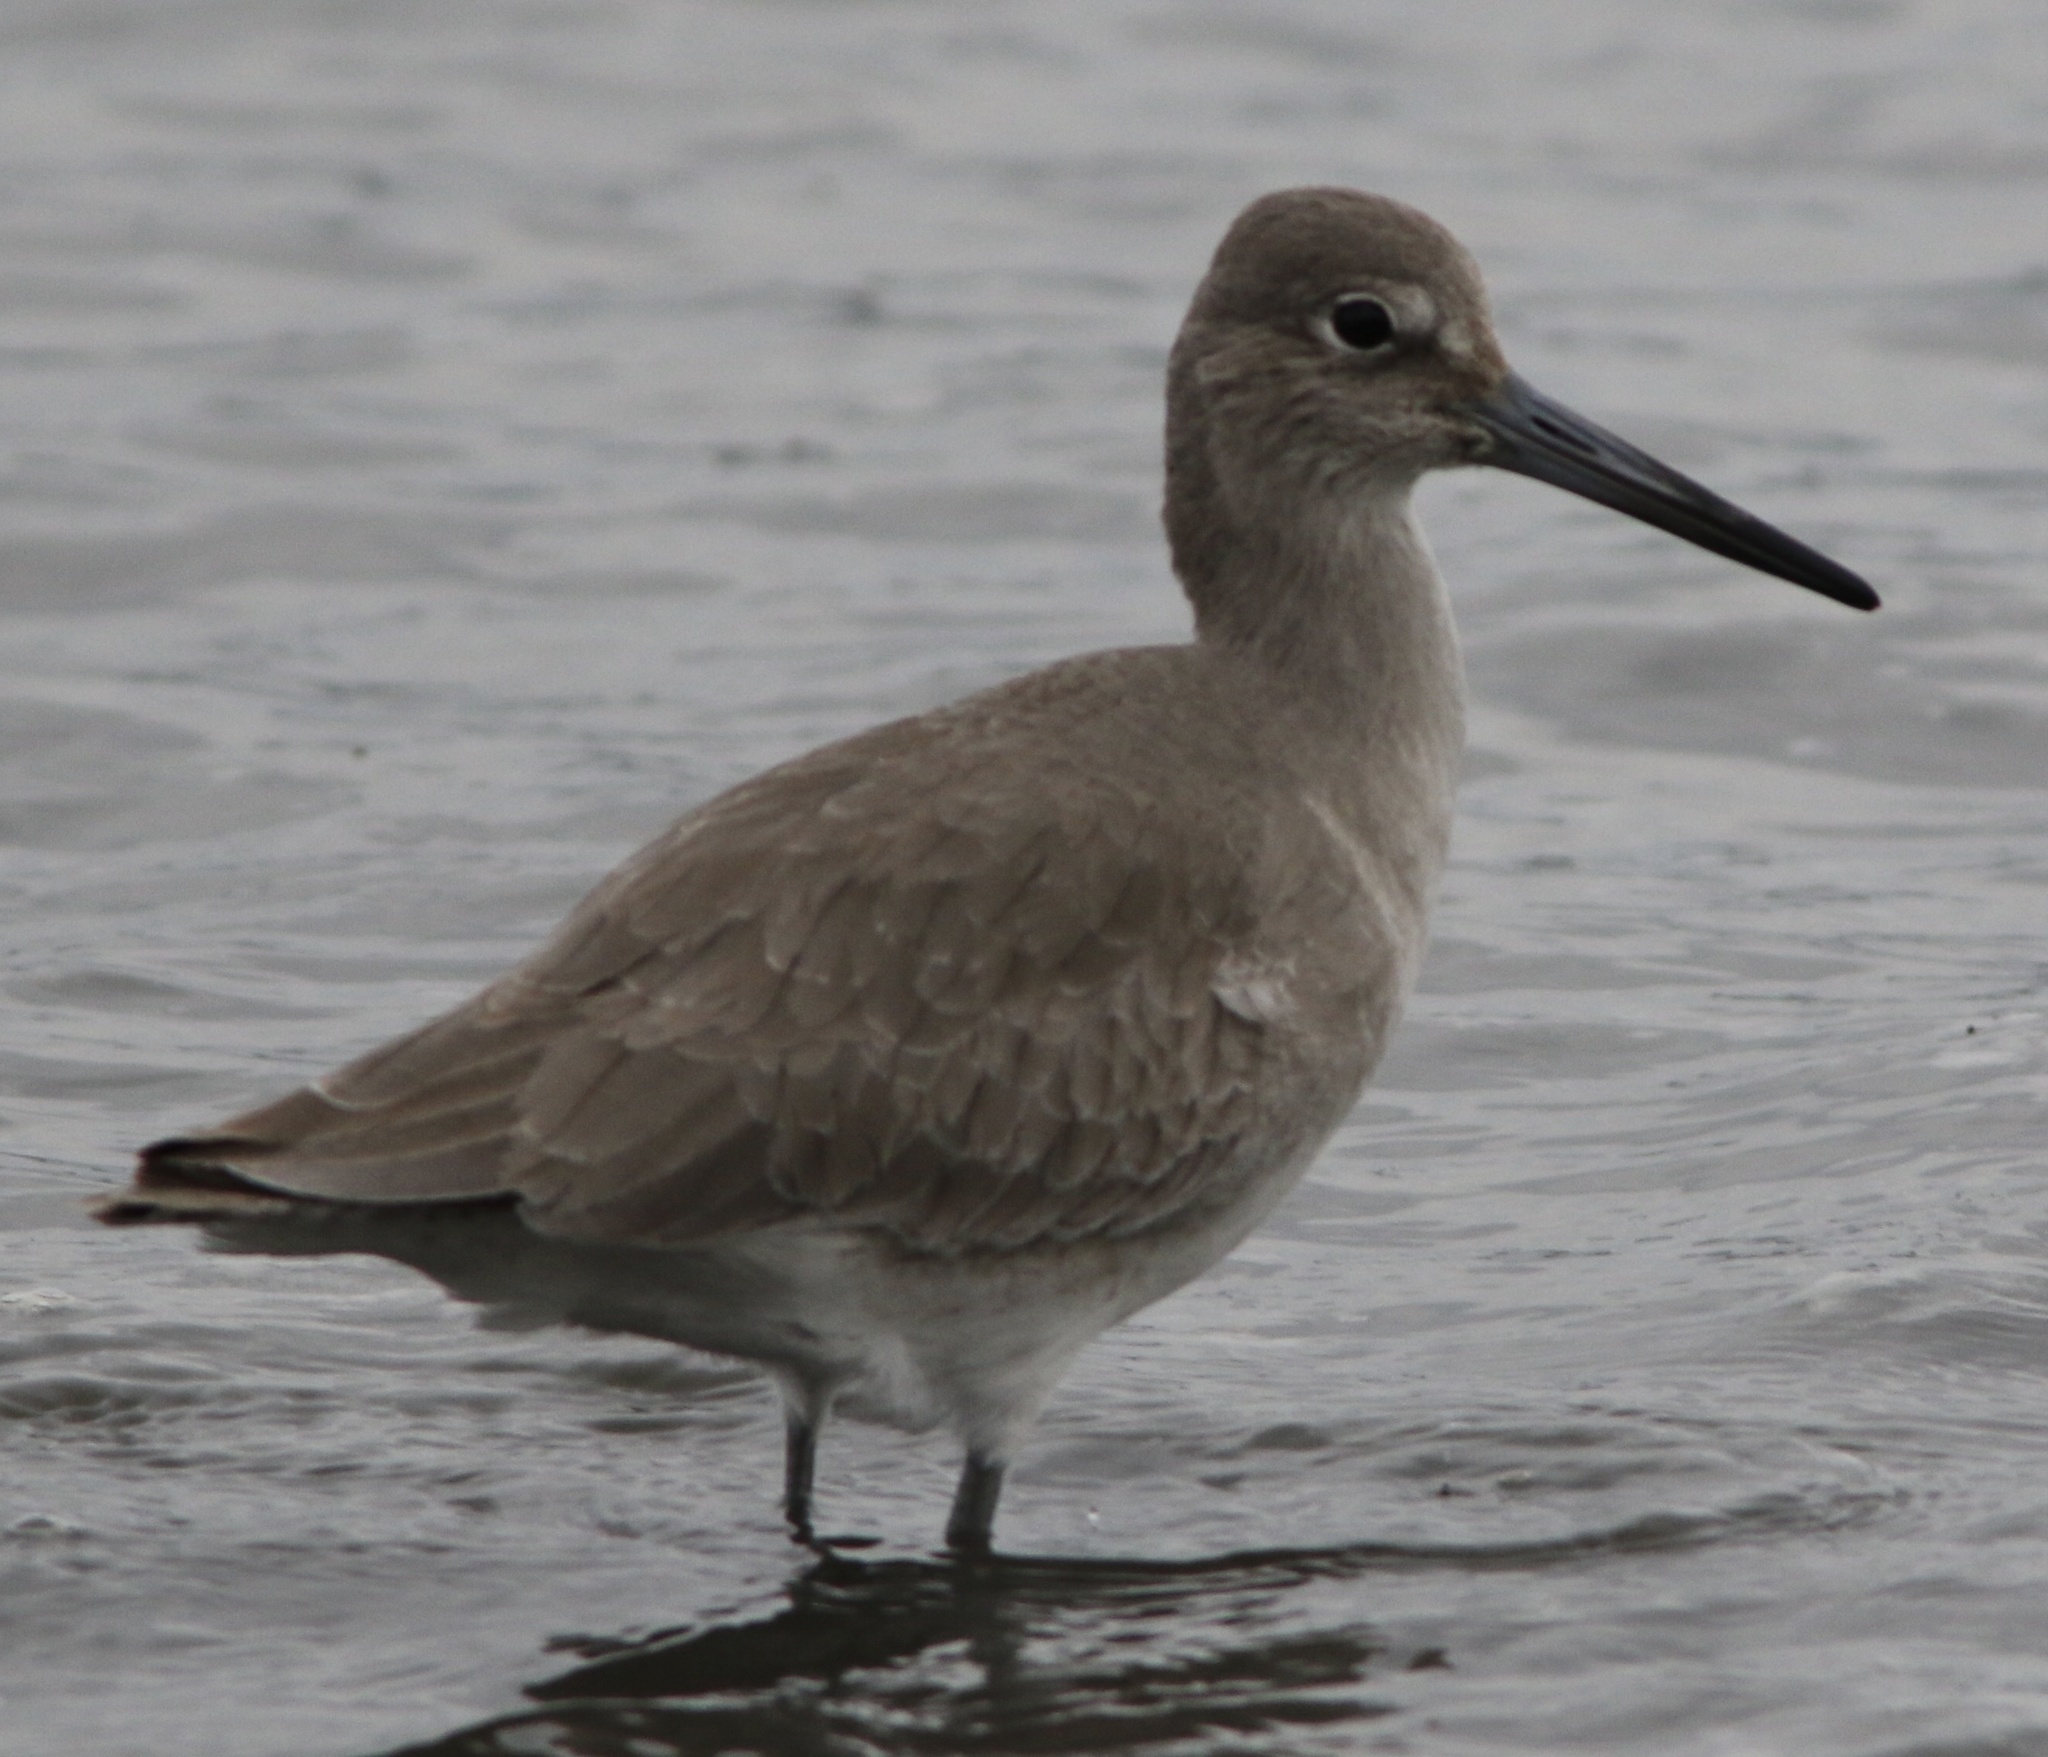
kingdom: Animalia
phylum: Chordata
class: Aves
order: Charadriiformes
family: Scolopacidae
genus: Tringa
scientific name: Tringa semipalmata
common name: Willet
